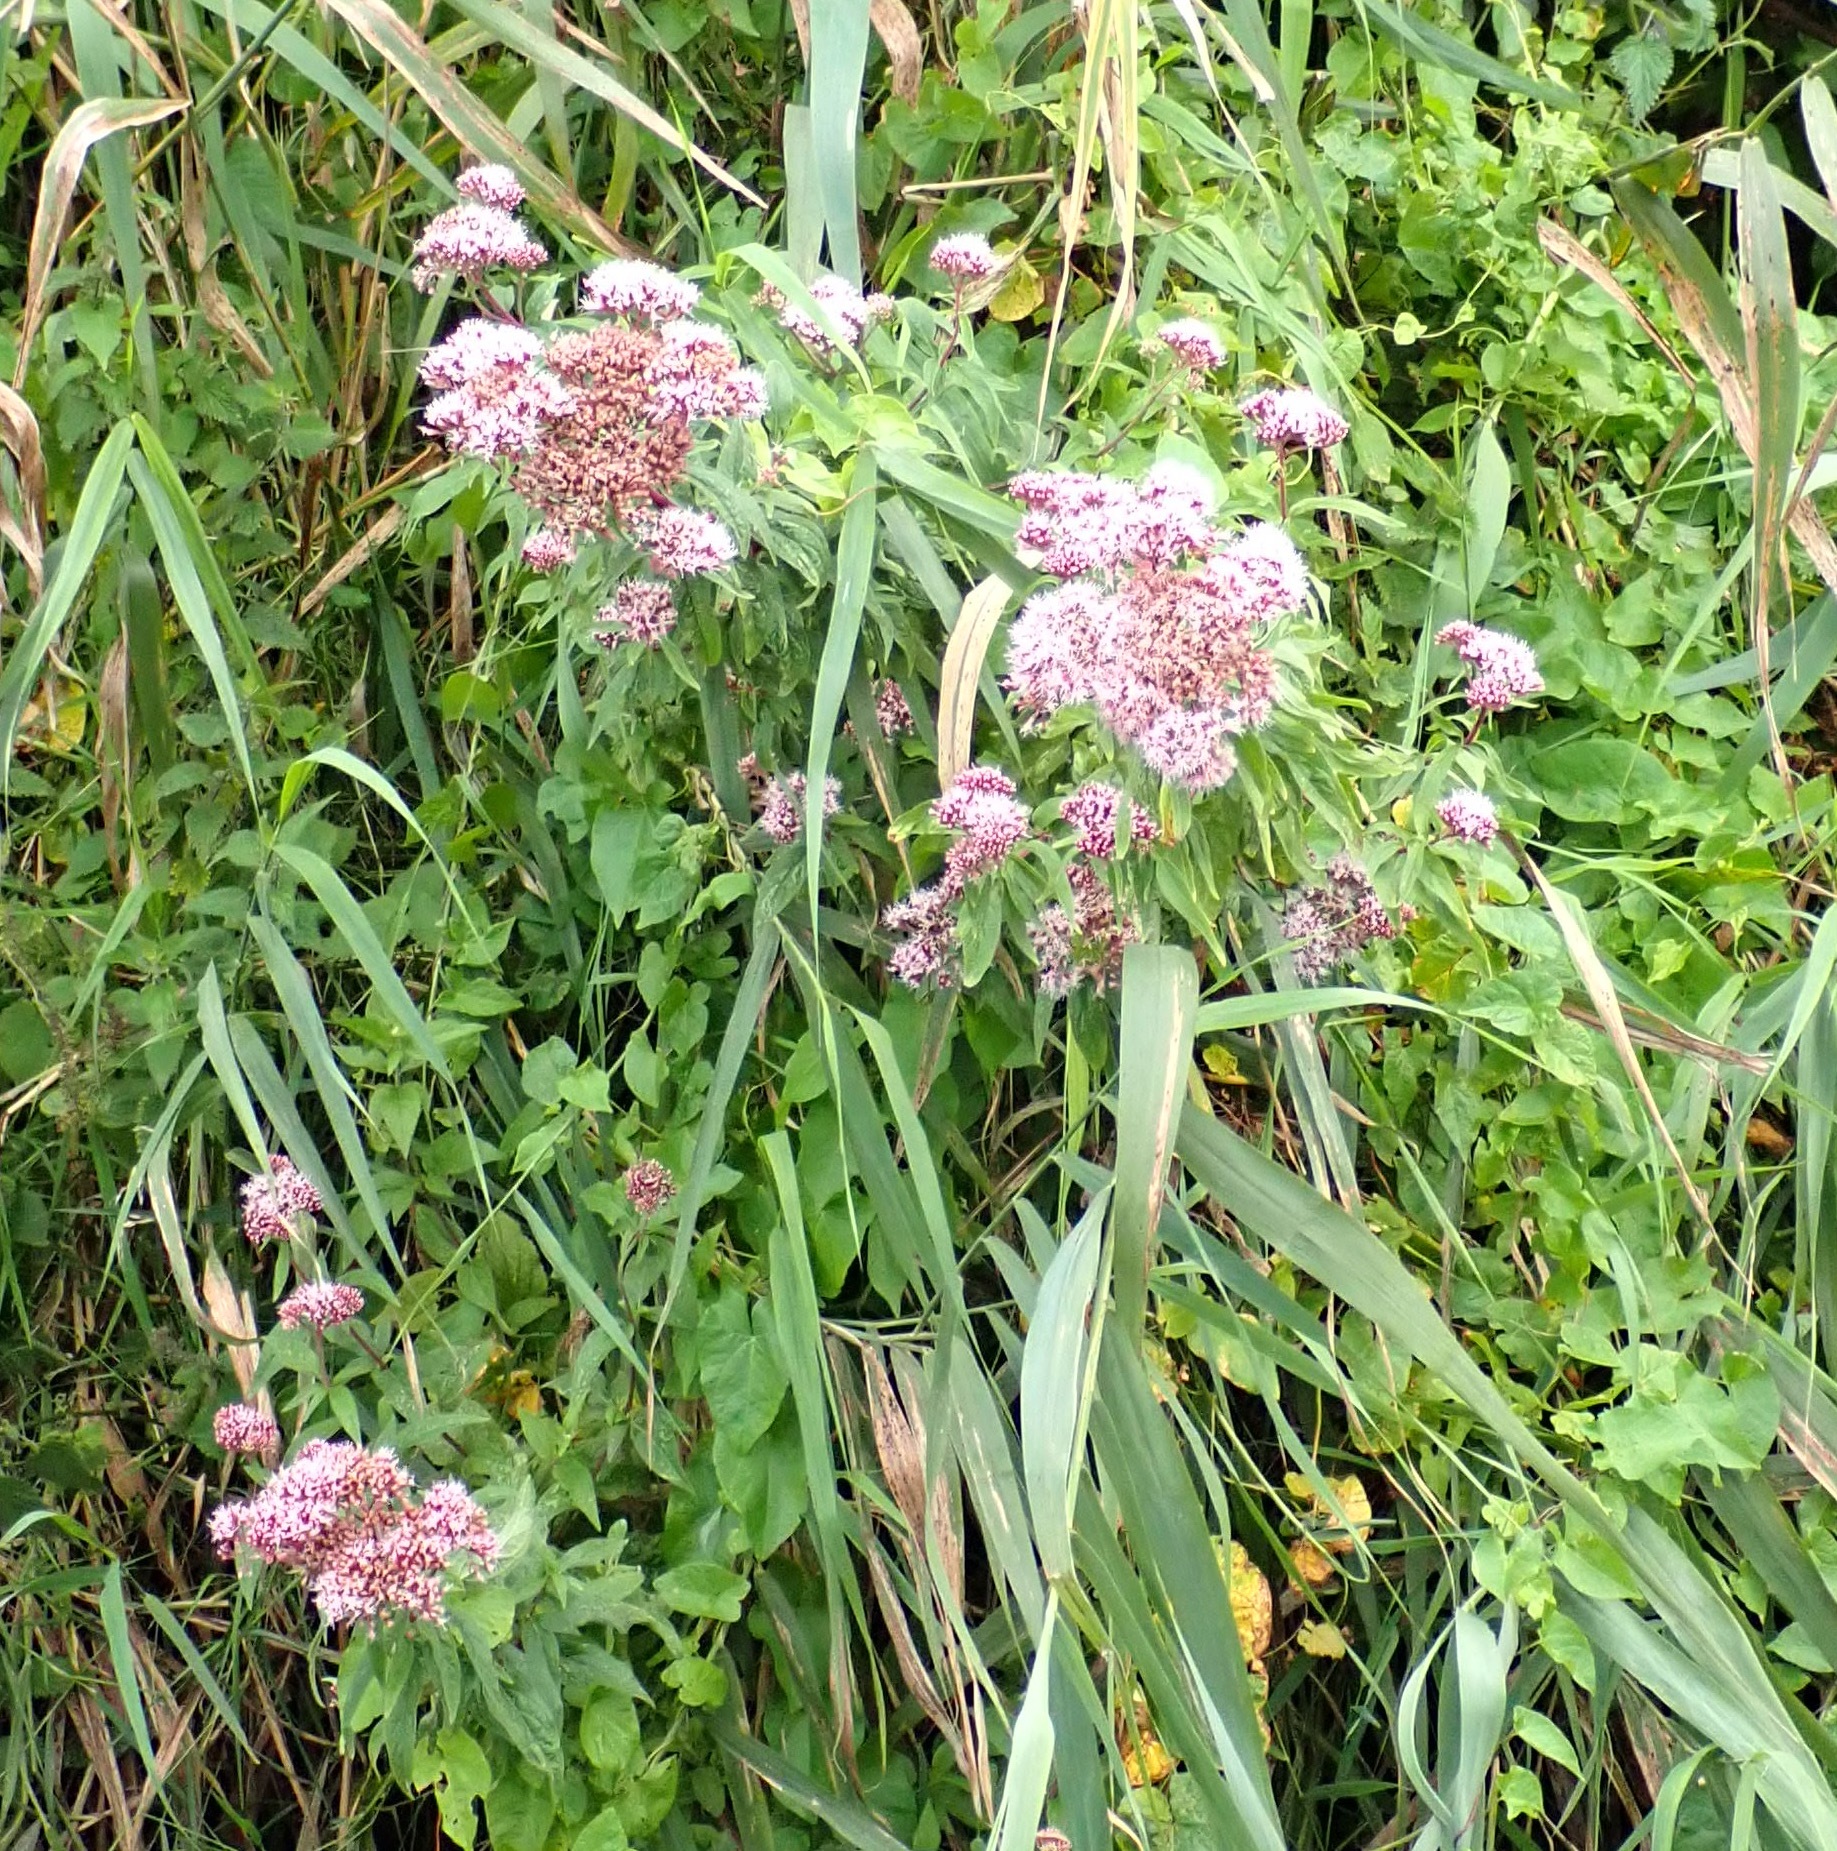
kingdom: Plantae
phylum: Tracheophyta
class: Magnoliopsida
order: Asterales
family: Asteraceae
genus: Eupatorium
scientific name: Eupatorium cannabinum
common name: Hemp-agrimony
